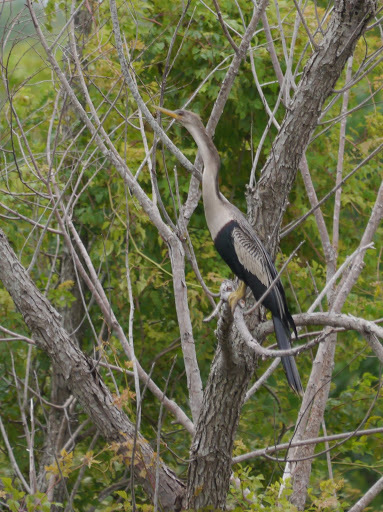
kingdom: Animalia
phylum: Chordata
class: Aves
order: Suliformes
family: Anhingidae
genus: Anhinga
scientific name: Anhinga anhinga
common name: Anhinga
